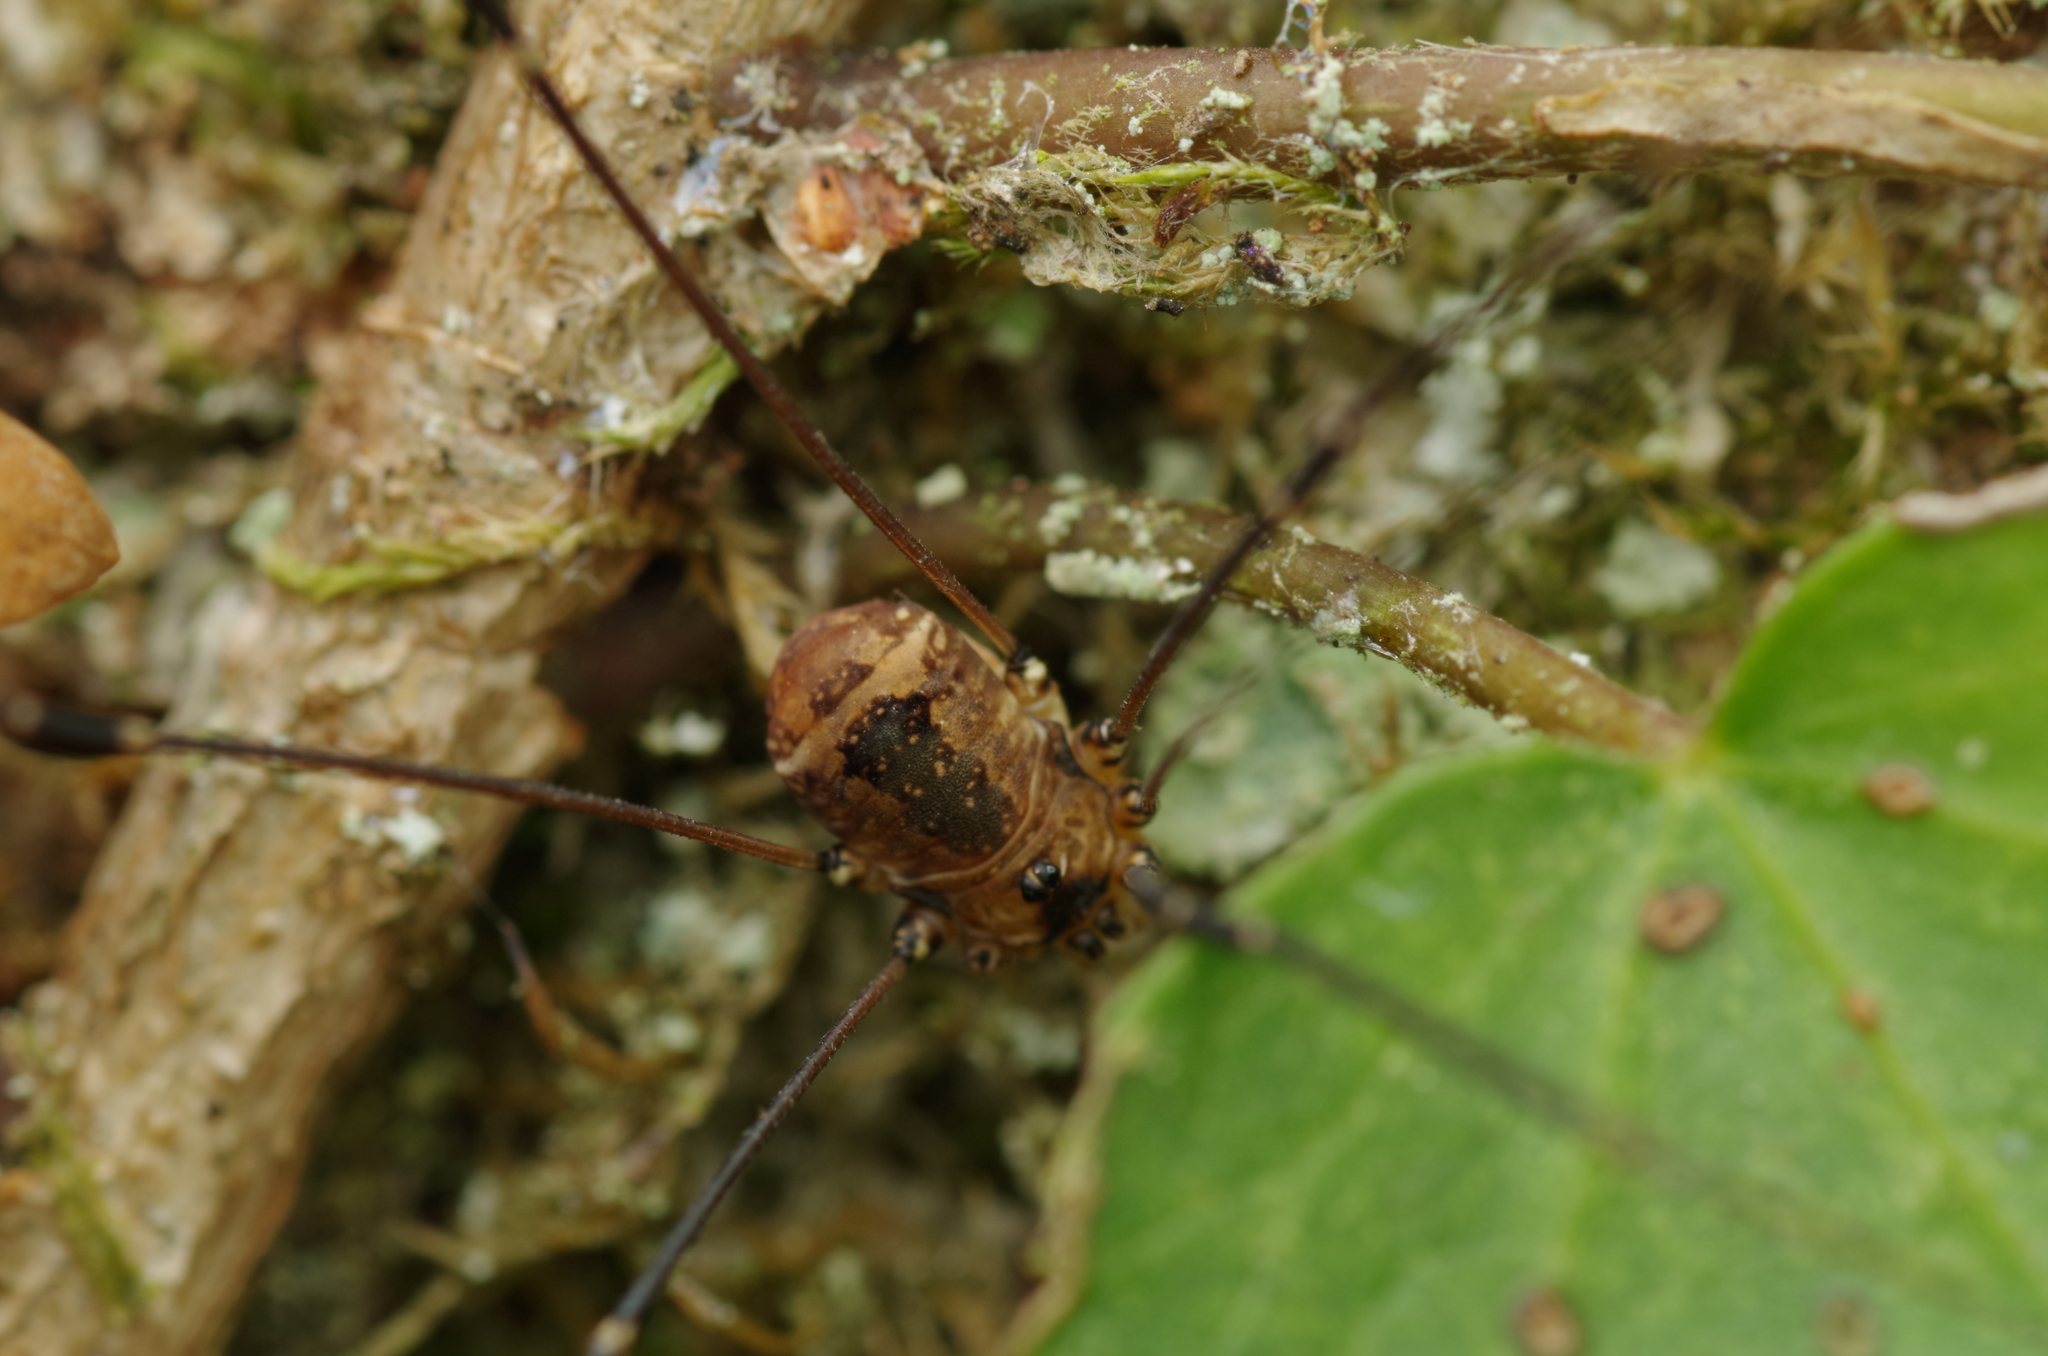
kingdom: Animalia
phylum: Arthropoda
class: Arachnida
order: Opiliones
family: Sclerosomatidae
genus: Leiobunum
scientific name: Leiobunum rotundum
